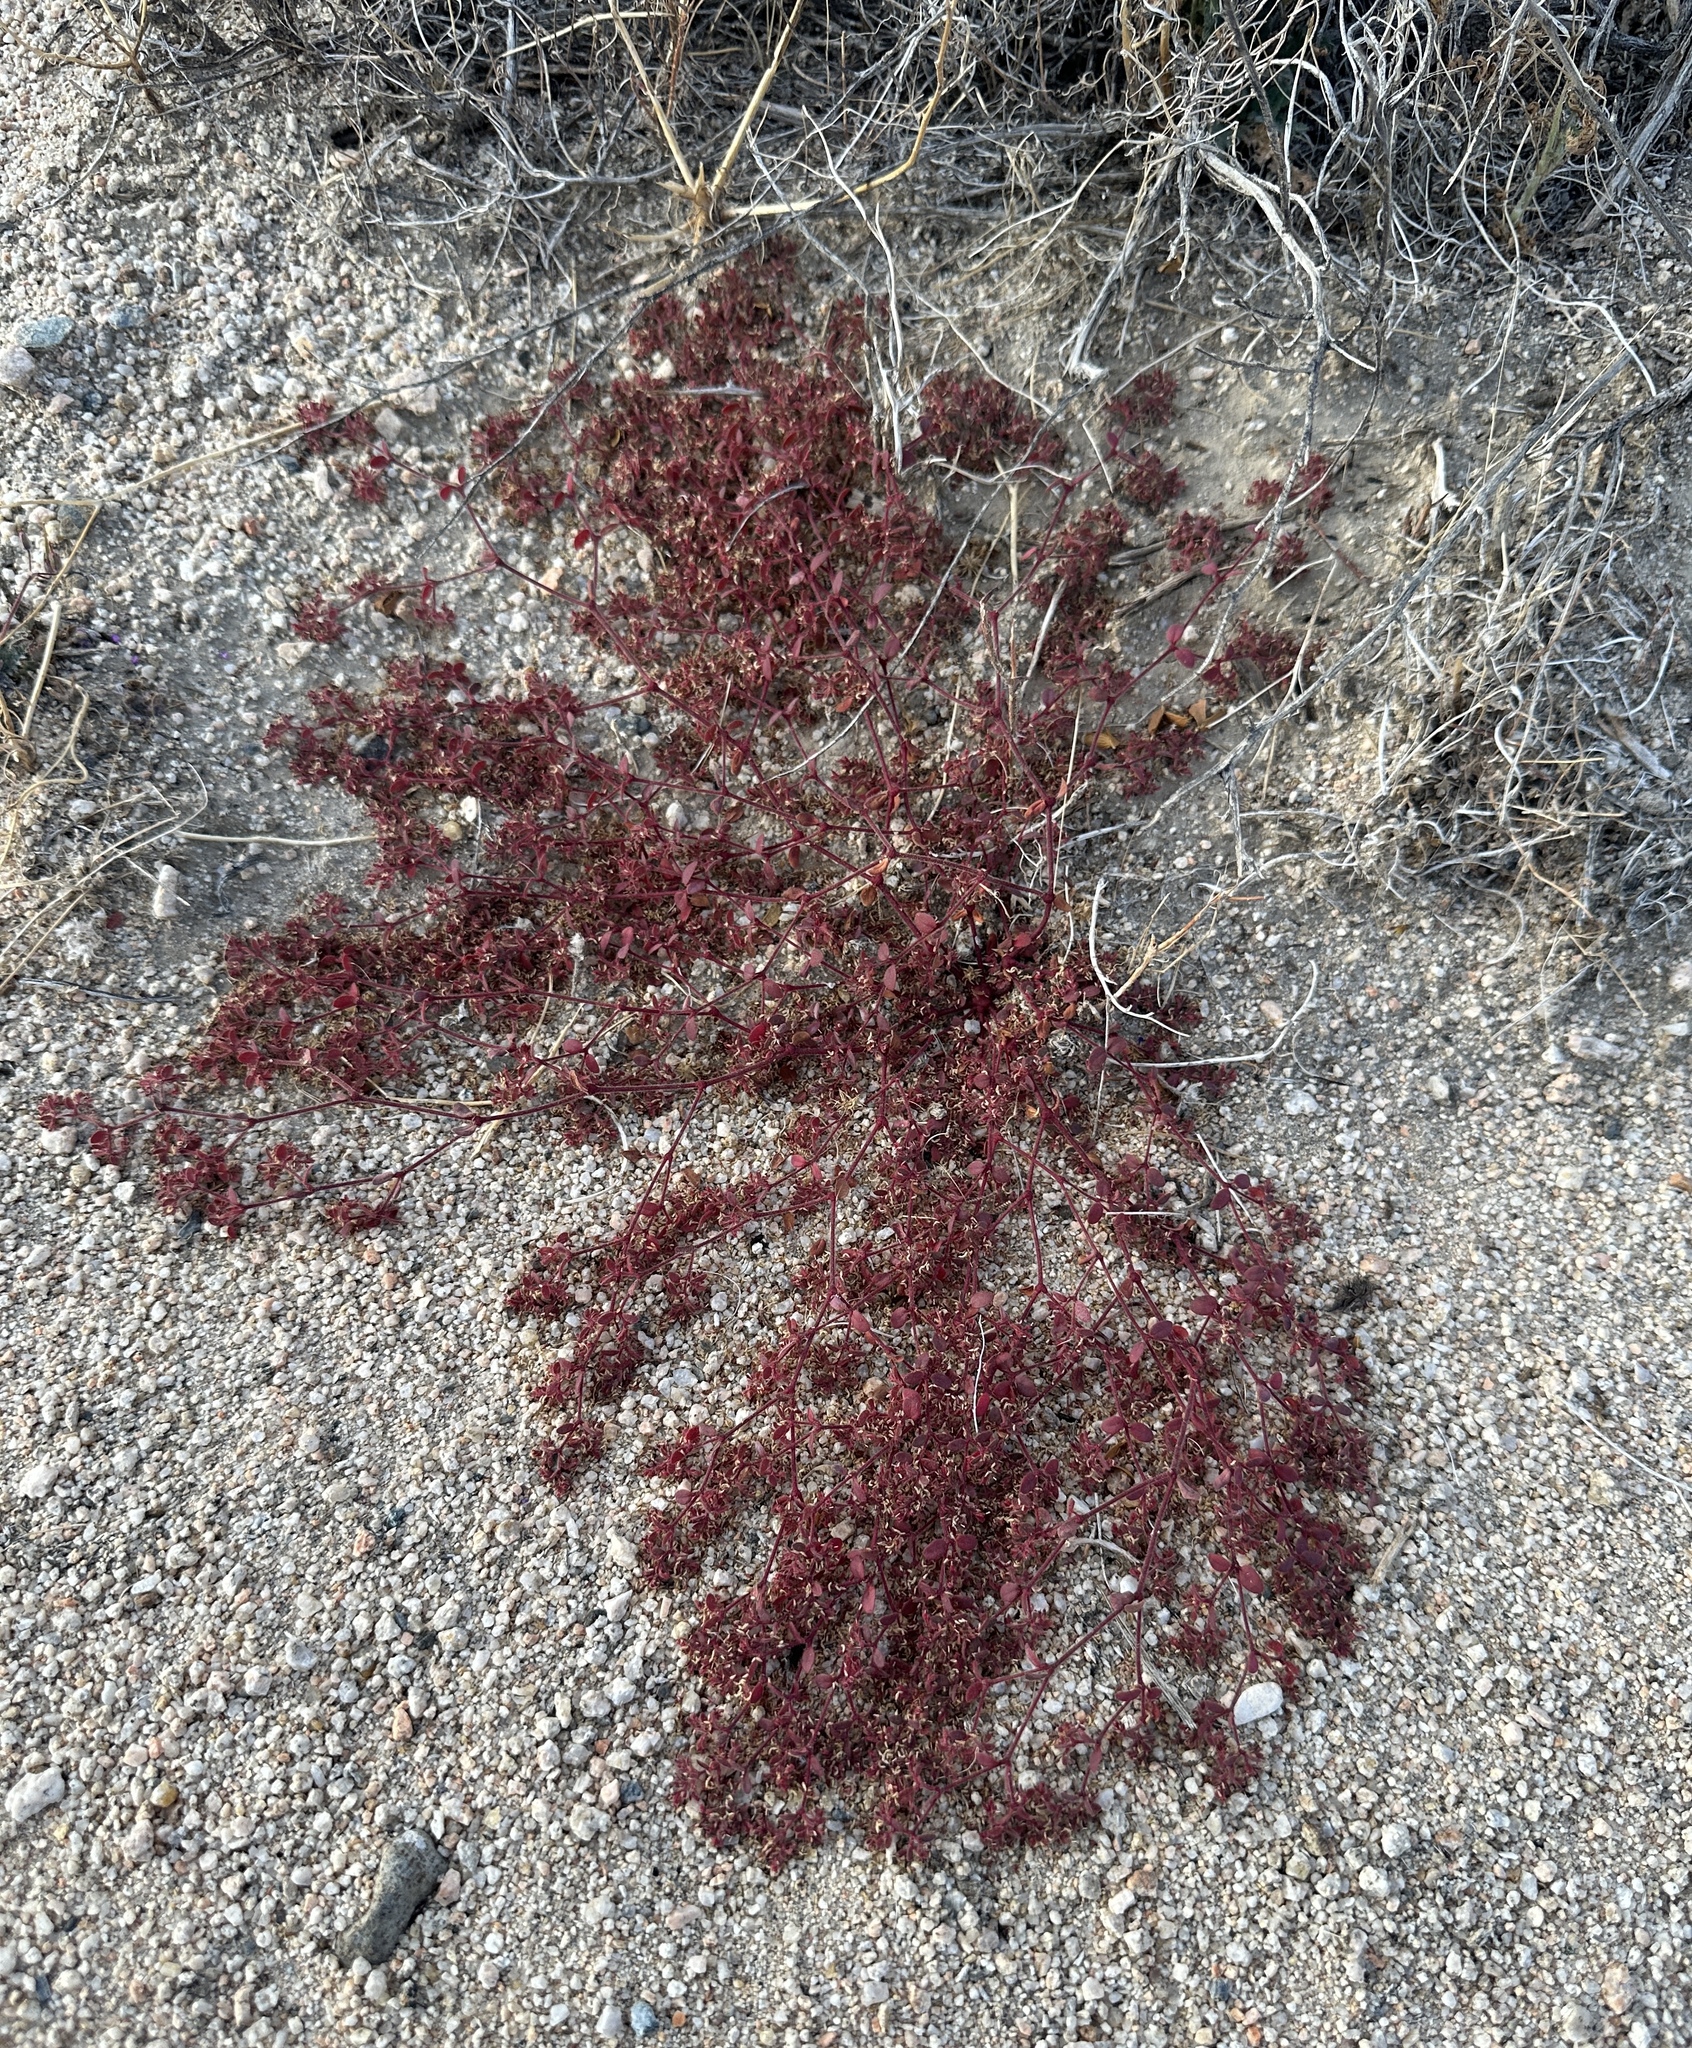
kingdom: Plantae
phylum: Tracheophyta
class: Magnoliopsida
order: Malpighiales
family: Euphorbiaceae
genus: Euphorbia
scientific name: Euphorbia setiloba
